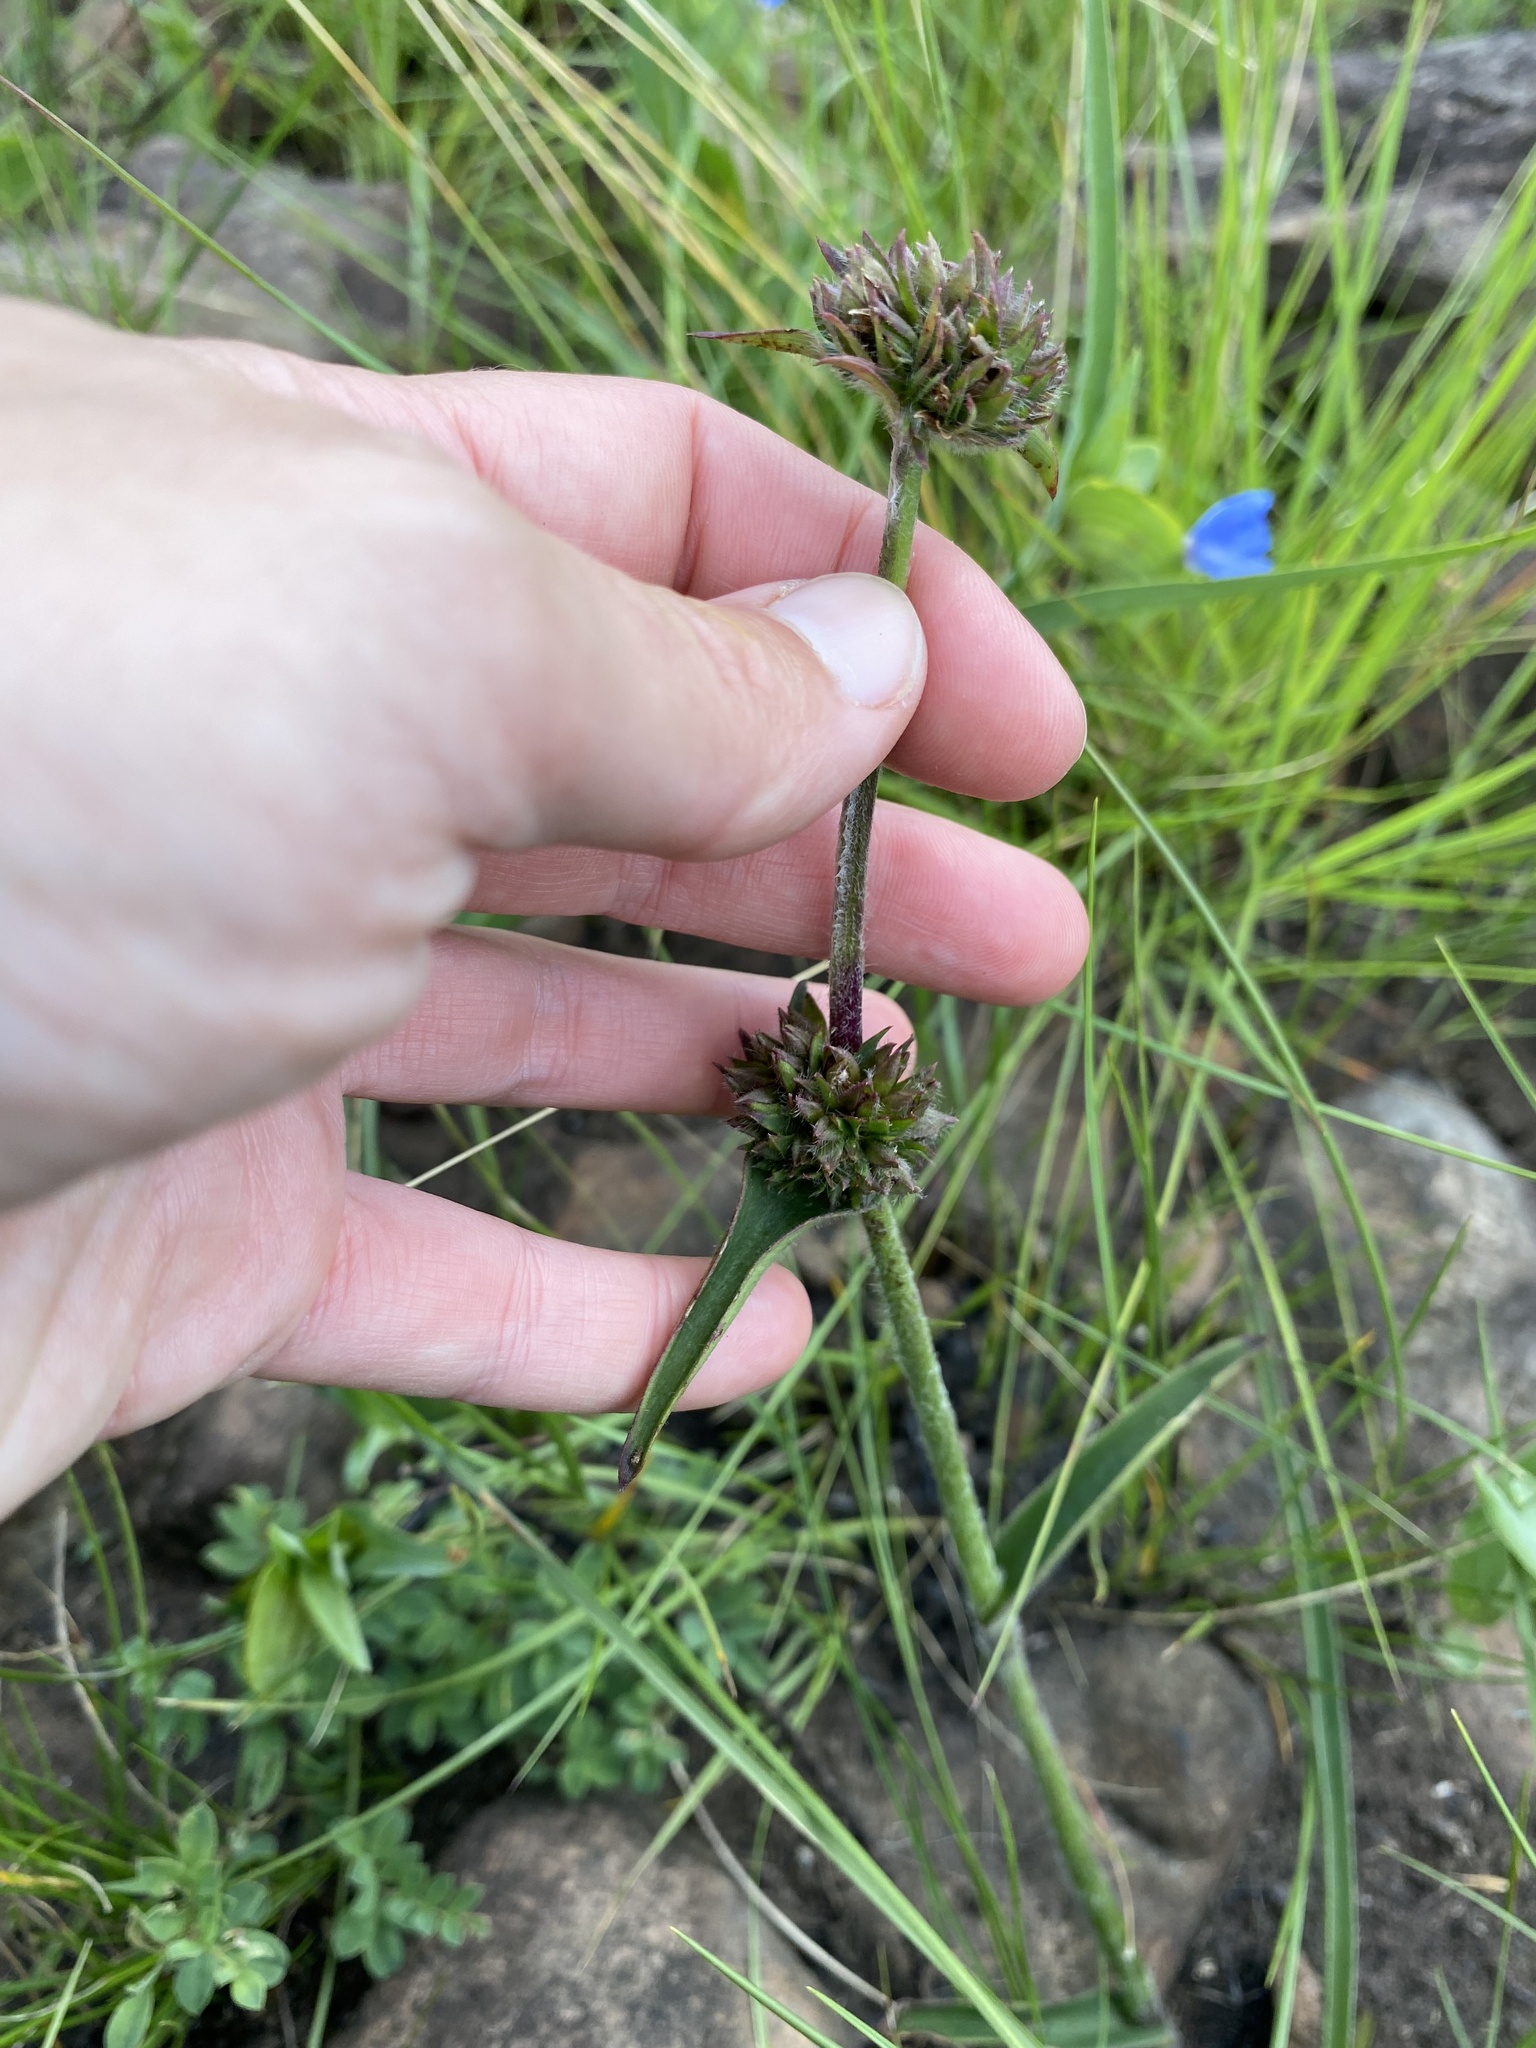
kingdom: Plantae
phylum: Tracheophyta
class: Liliopsida
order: Commelinales
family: Commelinaceae
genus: Cyanotis
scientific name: Cyanotis speciosa
